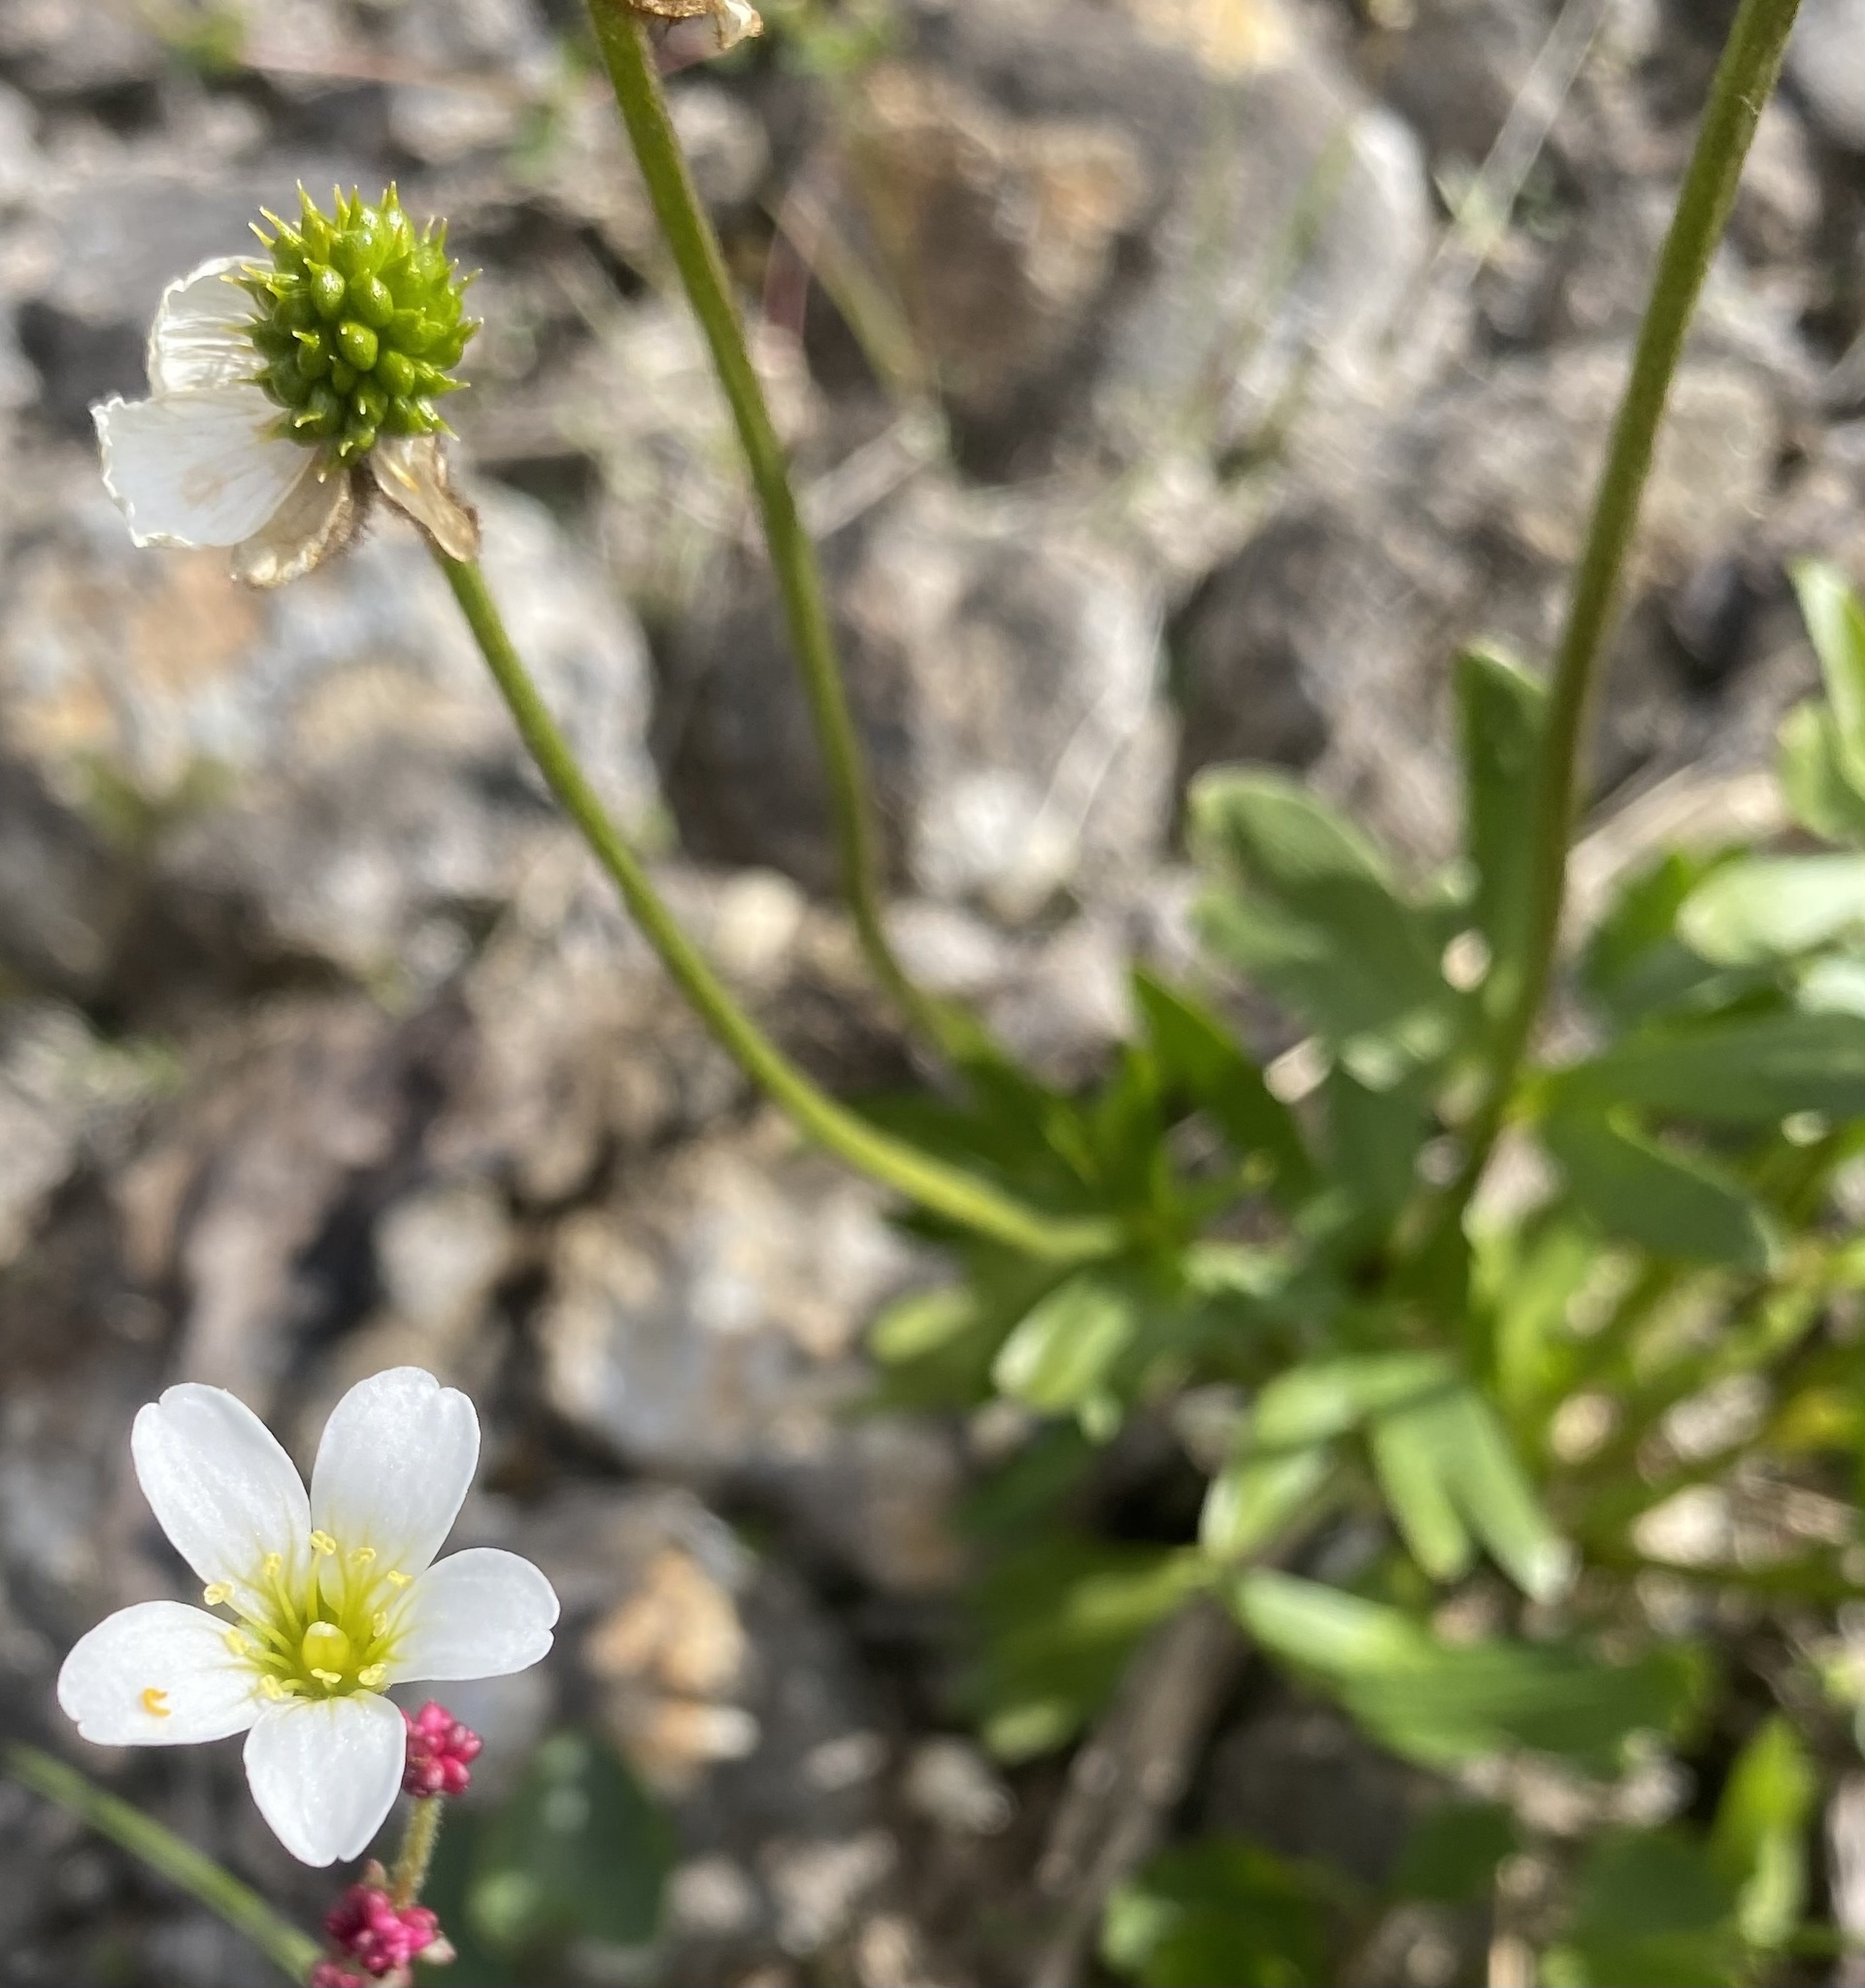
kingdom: Plantae
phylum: Tracheophyta
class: Magnoliopsida
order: Ranunculales
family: Ranunculaceae
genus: Ranunculus
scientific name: Ranunculus nivalis
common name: Snow buttercup
